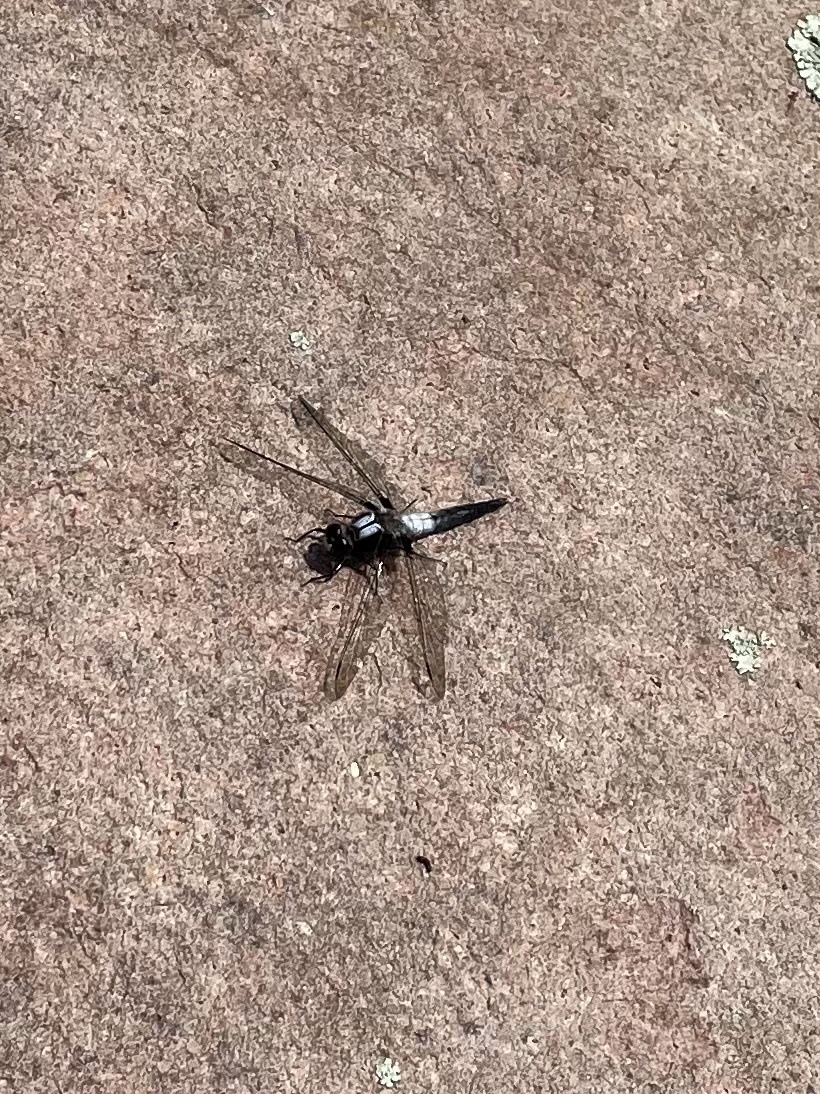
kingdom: Animalia
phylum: Arthropoda
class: Insecta
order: Odonata
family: Libellulidae
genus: Ladona
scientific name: Ladona julia
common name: Chalk-fronted corporal
